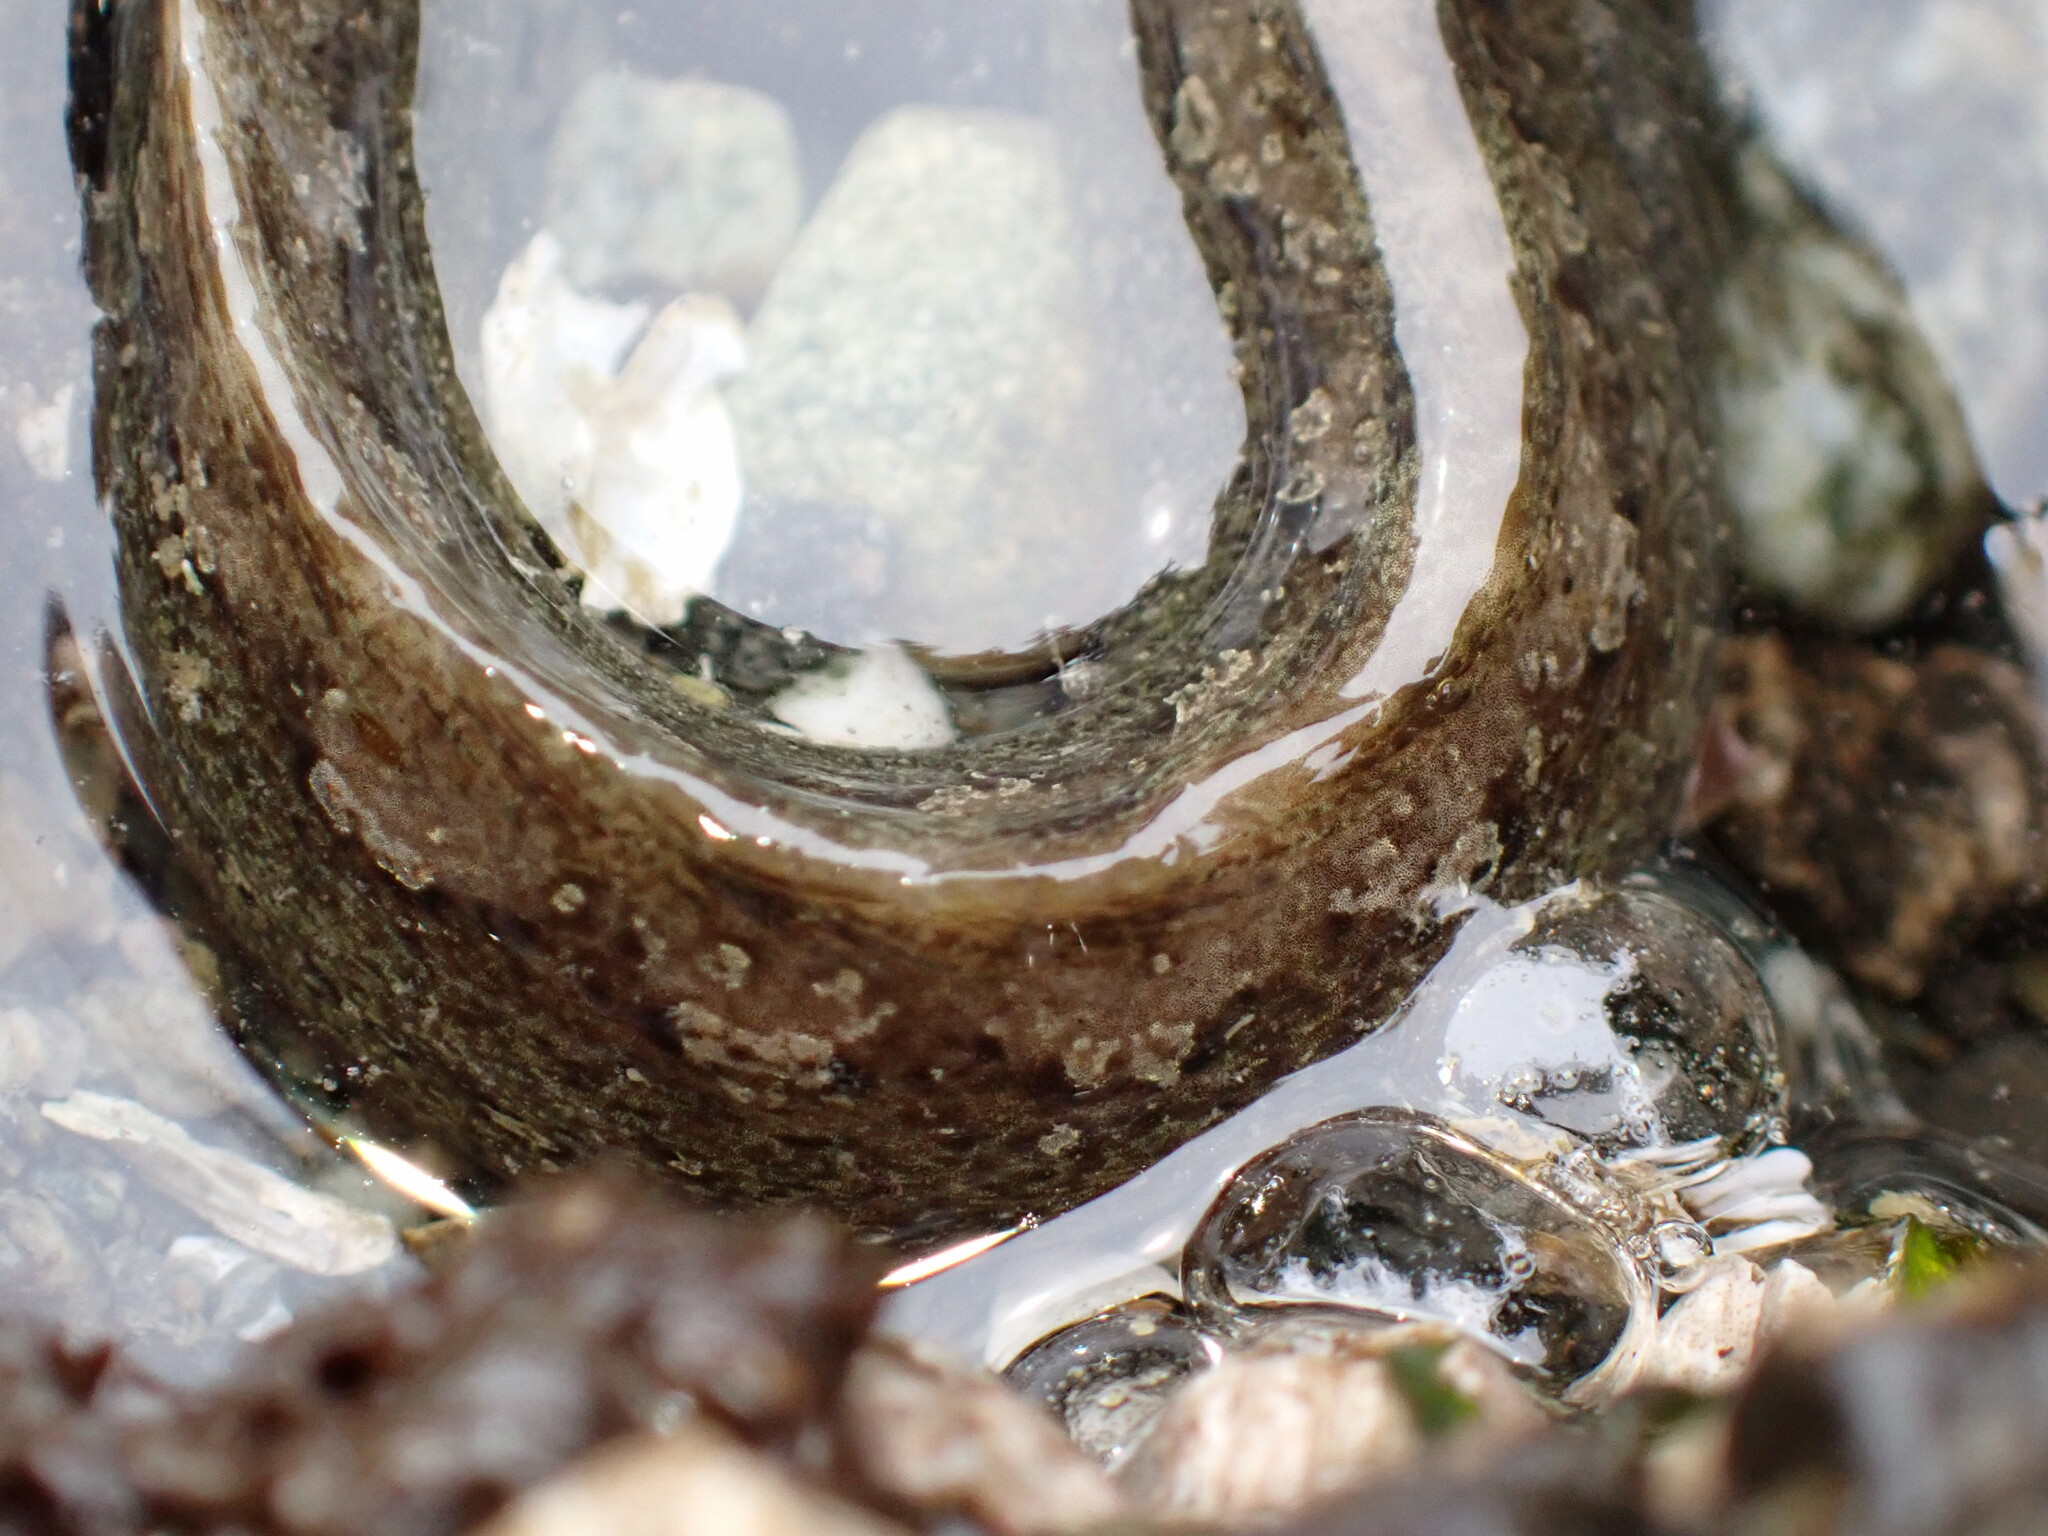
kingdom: Animalia
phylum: Chordata
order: Perciformes
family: Stichaeidae
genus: Anoplarchus
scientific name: Anoplarchus purpurescens
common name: High cockscomb
